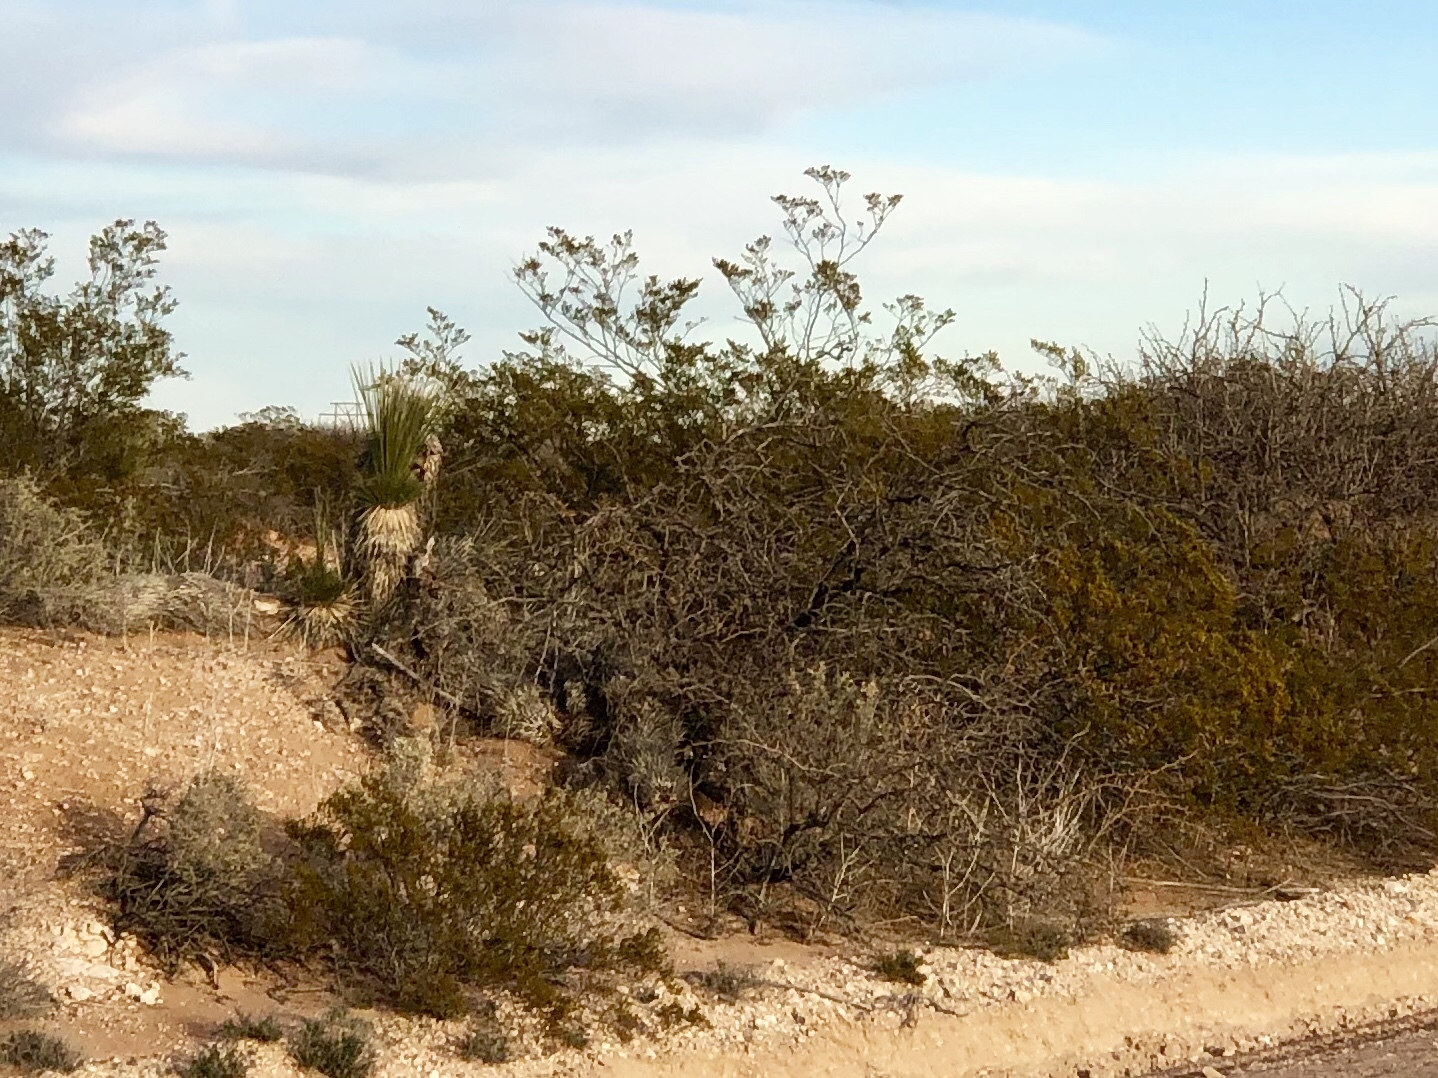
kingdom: Plantae
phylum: Tracheophyta
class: Magnoliopsida
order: Zygophyllales
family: Zygophyllaceae
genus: Larrea
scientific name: Larrea tridentata
